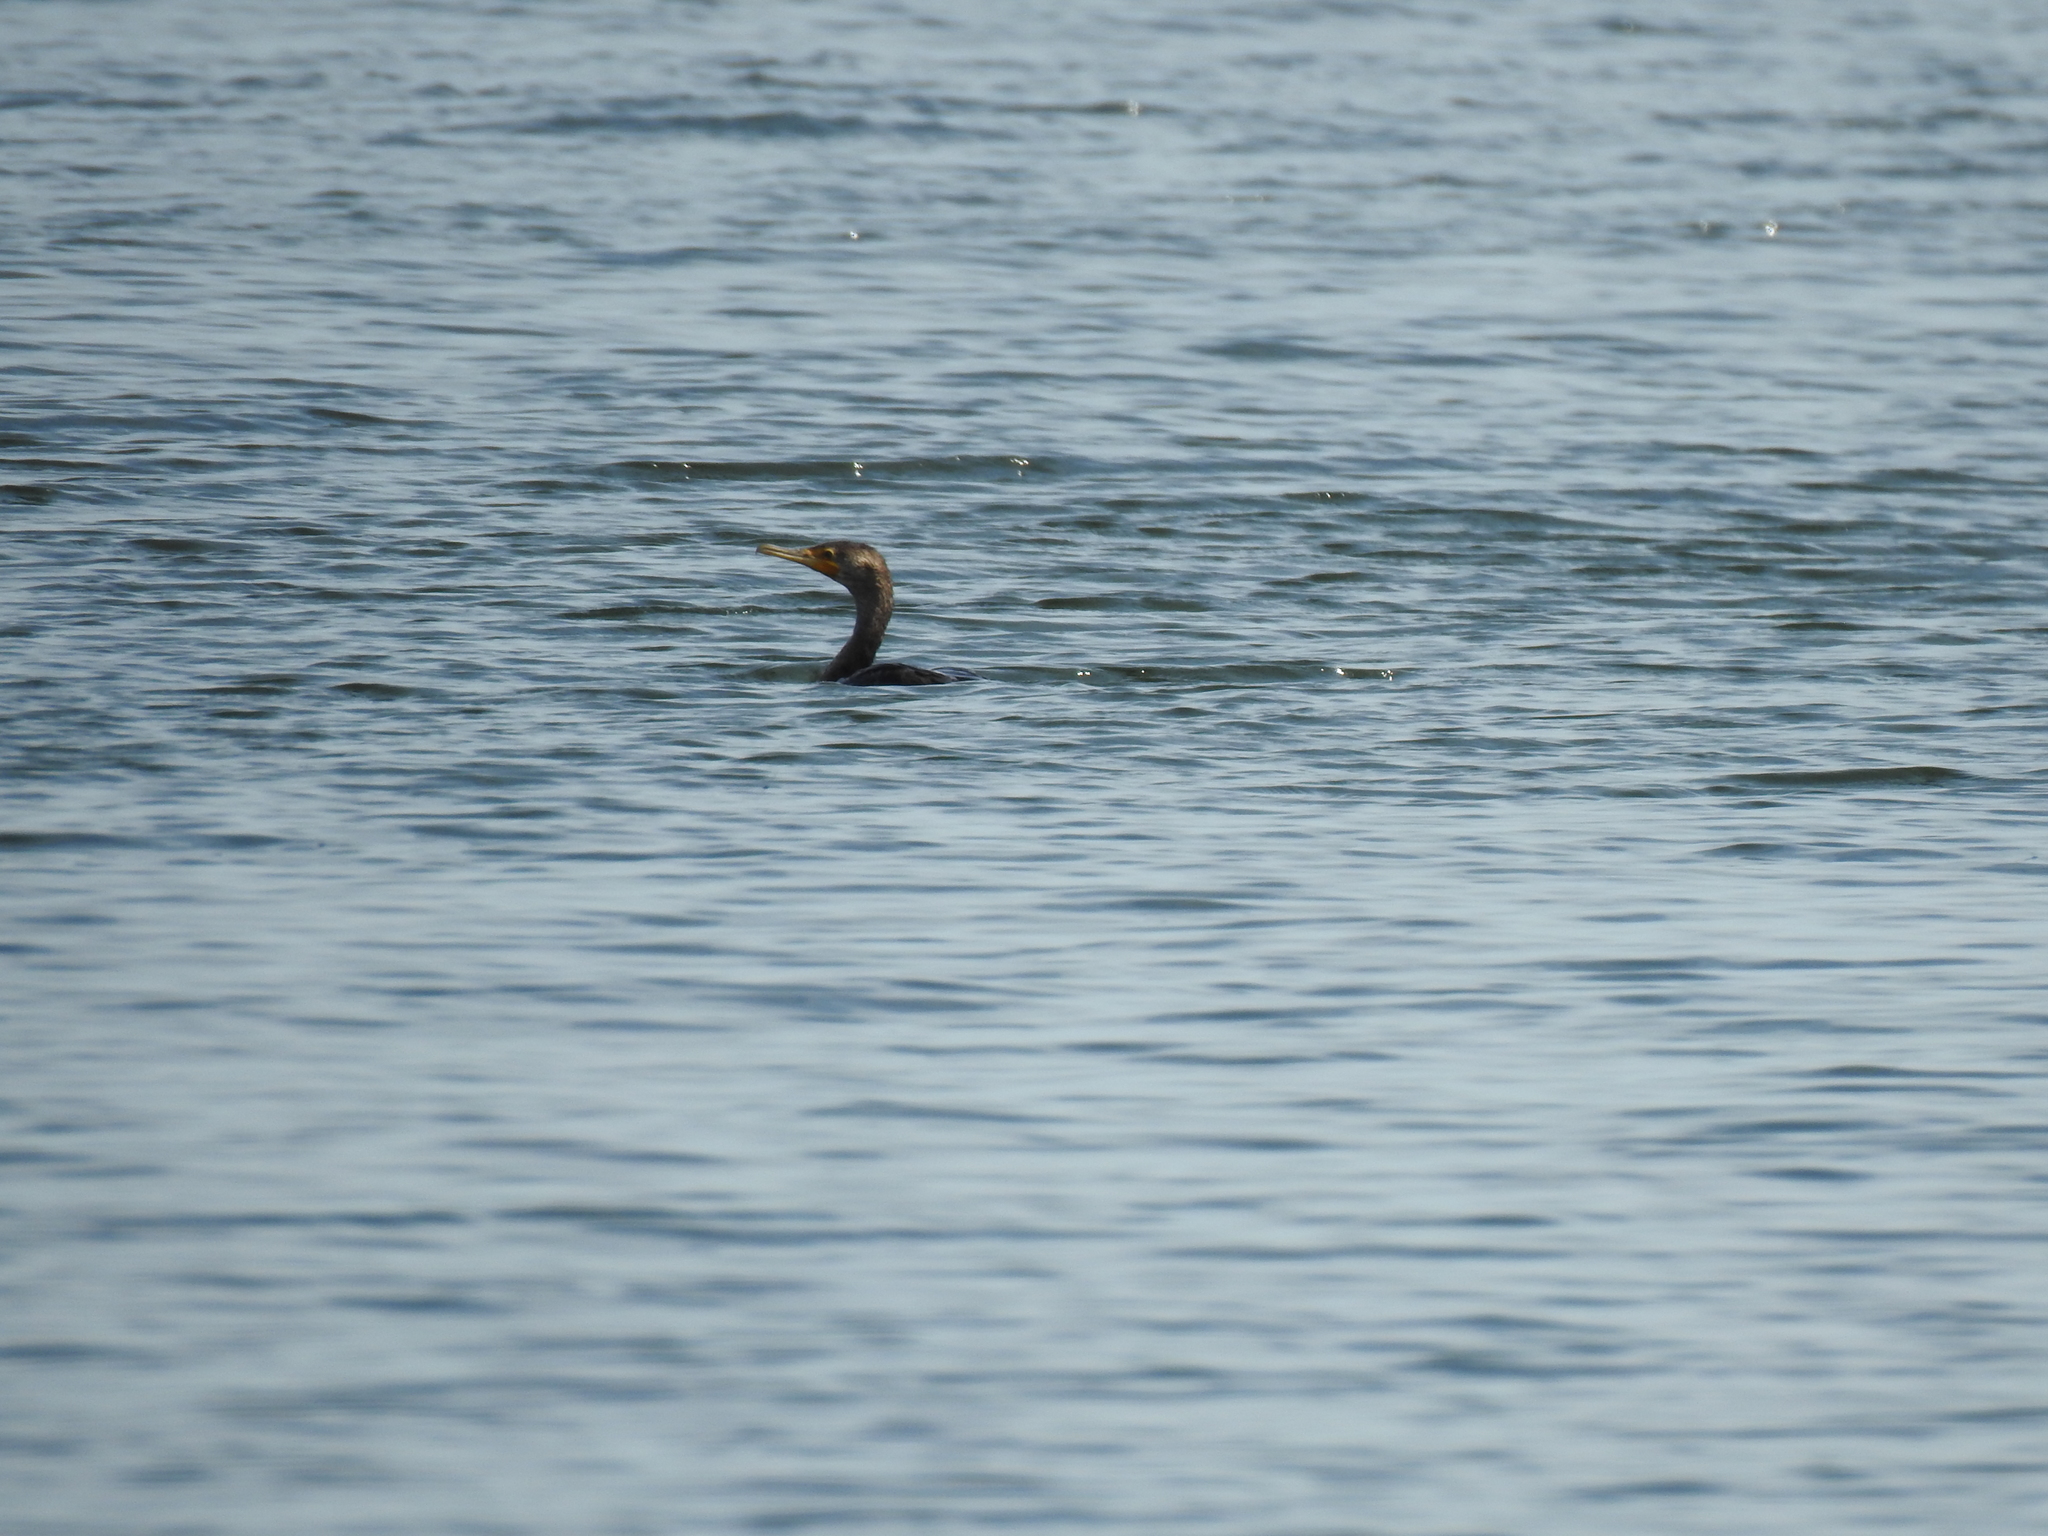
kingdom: Animalia
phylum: Chordata
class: Aves
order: Suliformes
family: Phalacrocoracidae
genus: Phalacrocorax
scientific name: Phalacrocorax auritus
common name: Double-crested cormorant
